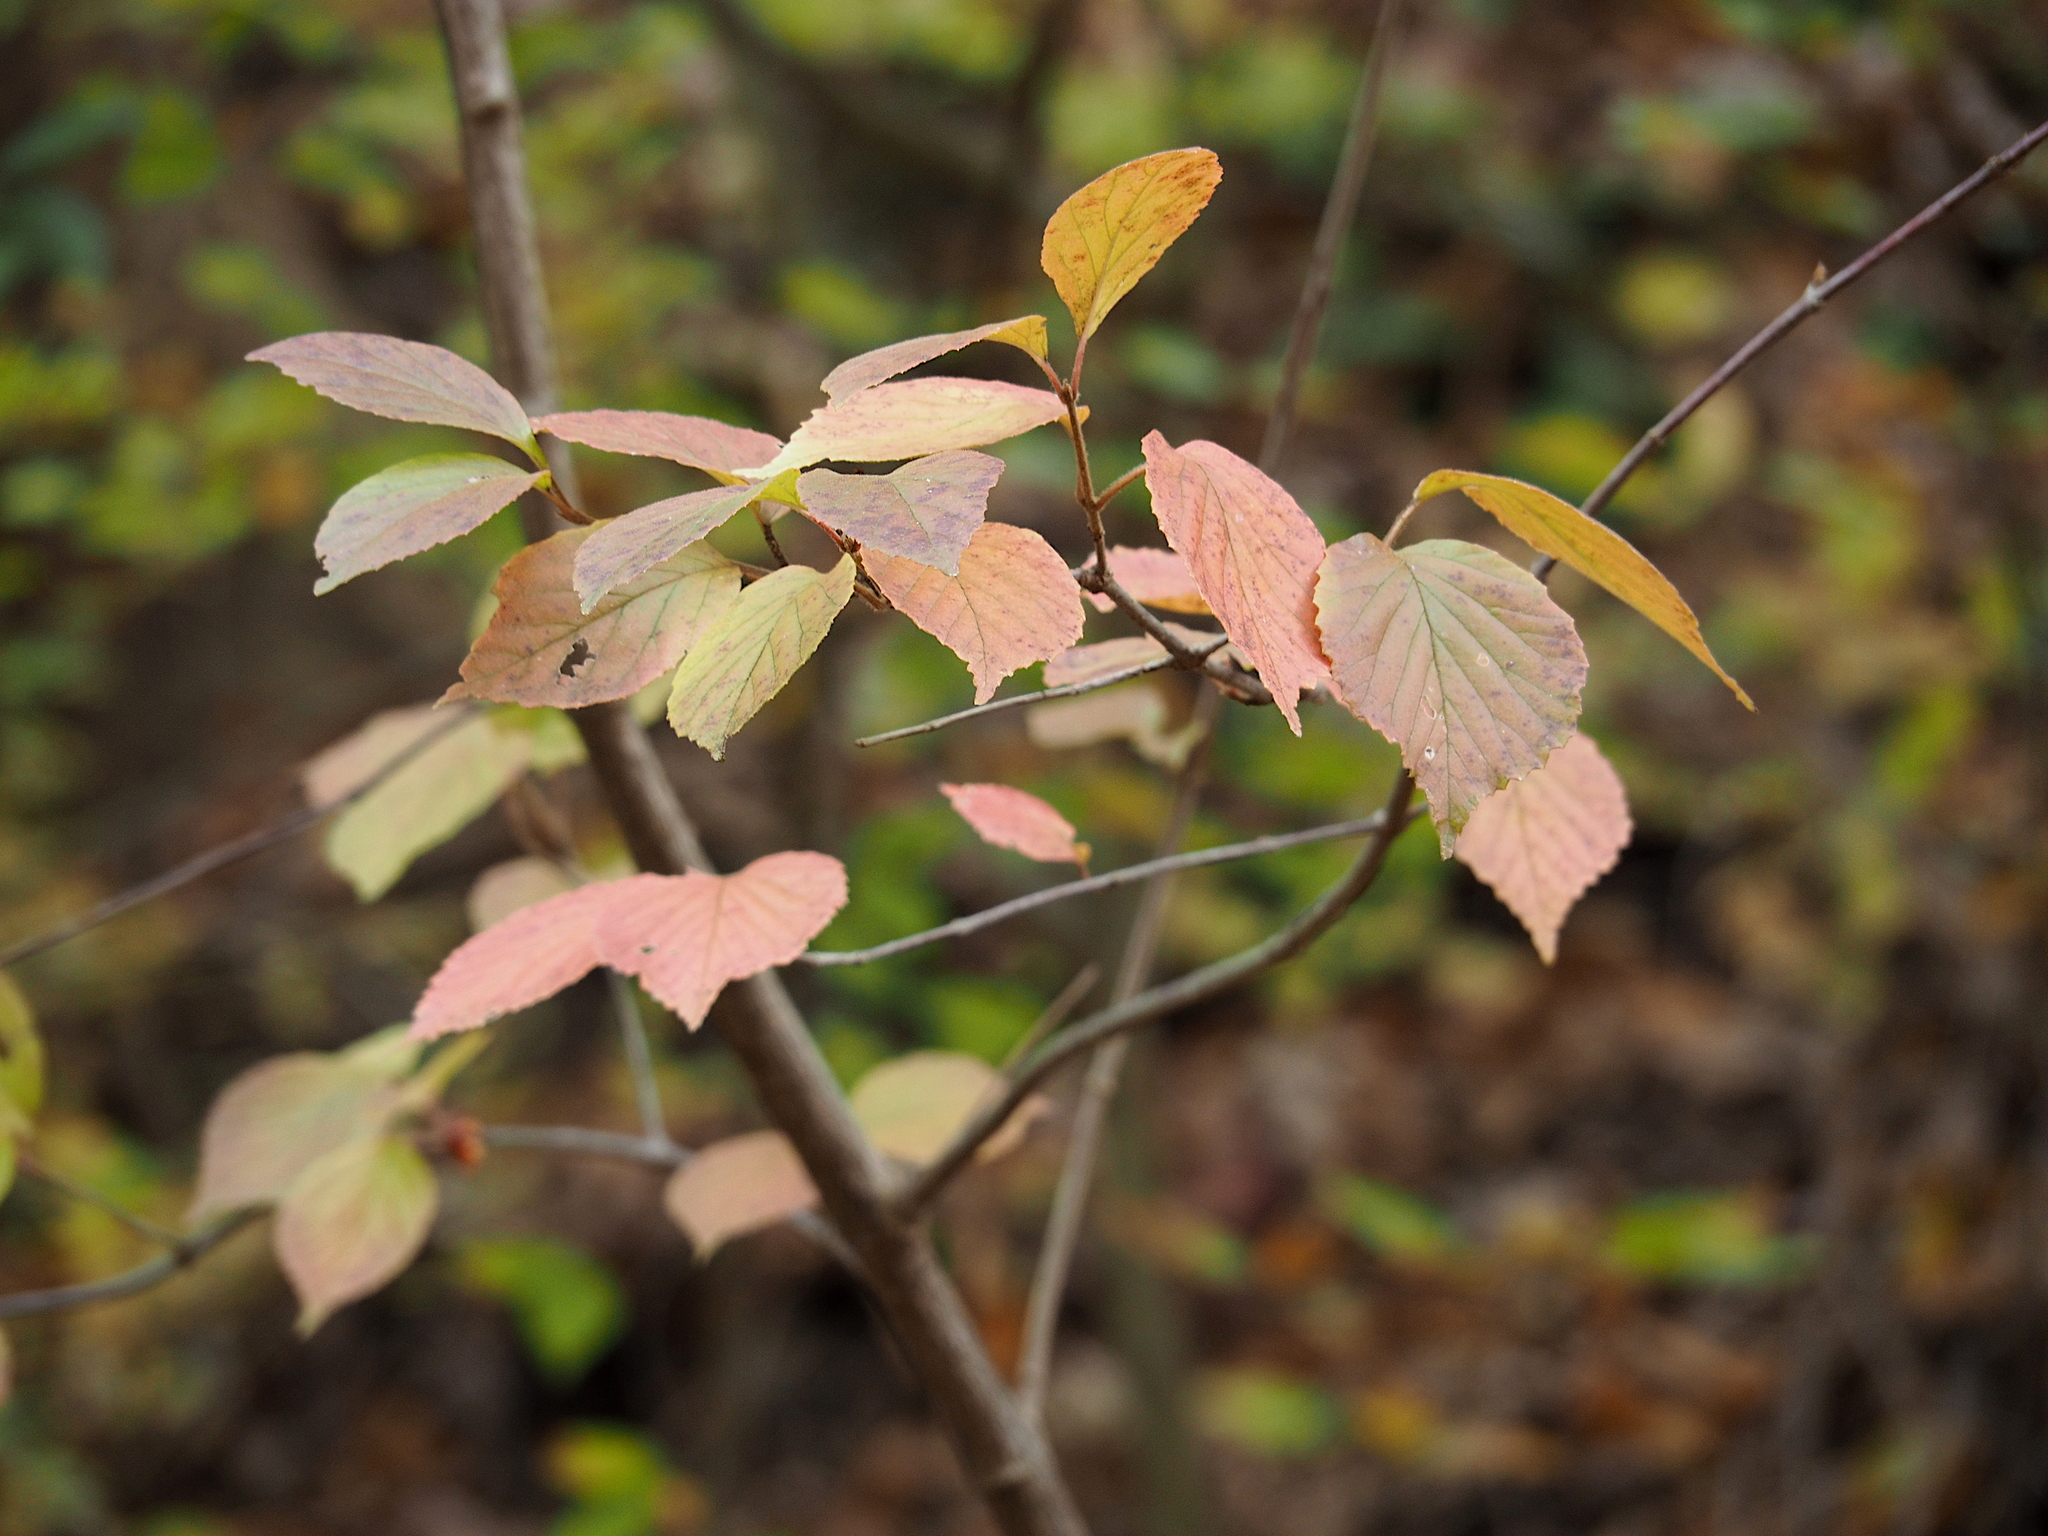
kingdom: Plantae
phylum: Tracheophyta
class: Magnoliopsida
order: Dipsacales
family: Viburnaceae
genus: Viburnum
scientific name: Viburnum dilatatum
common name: Linden arrowwood
